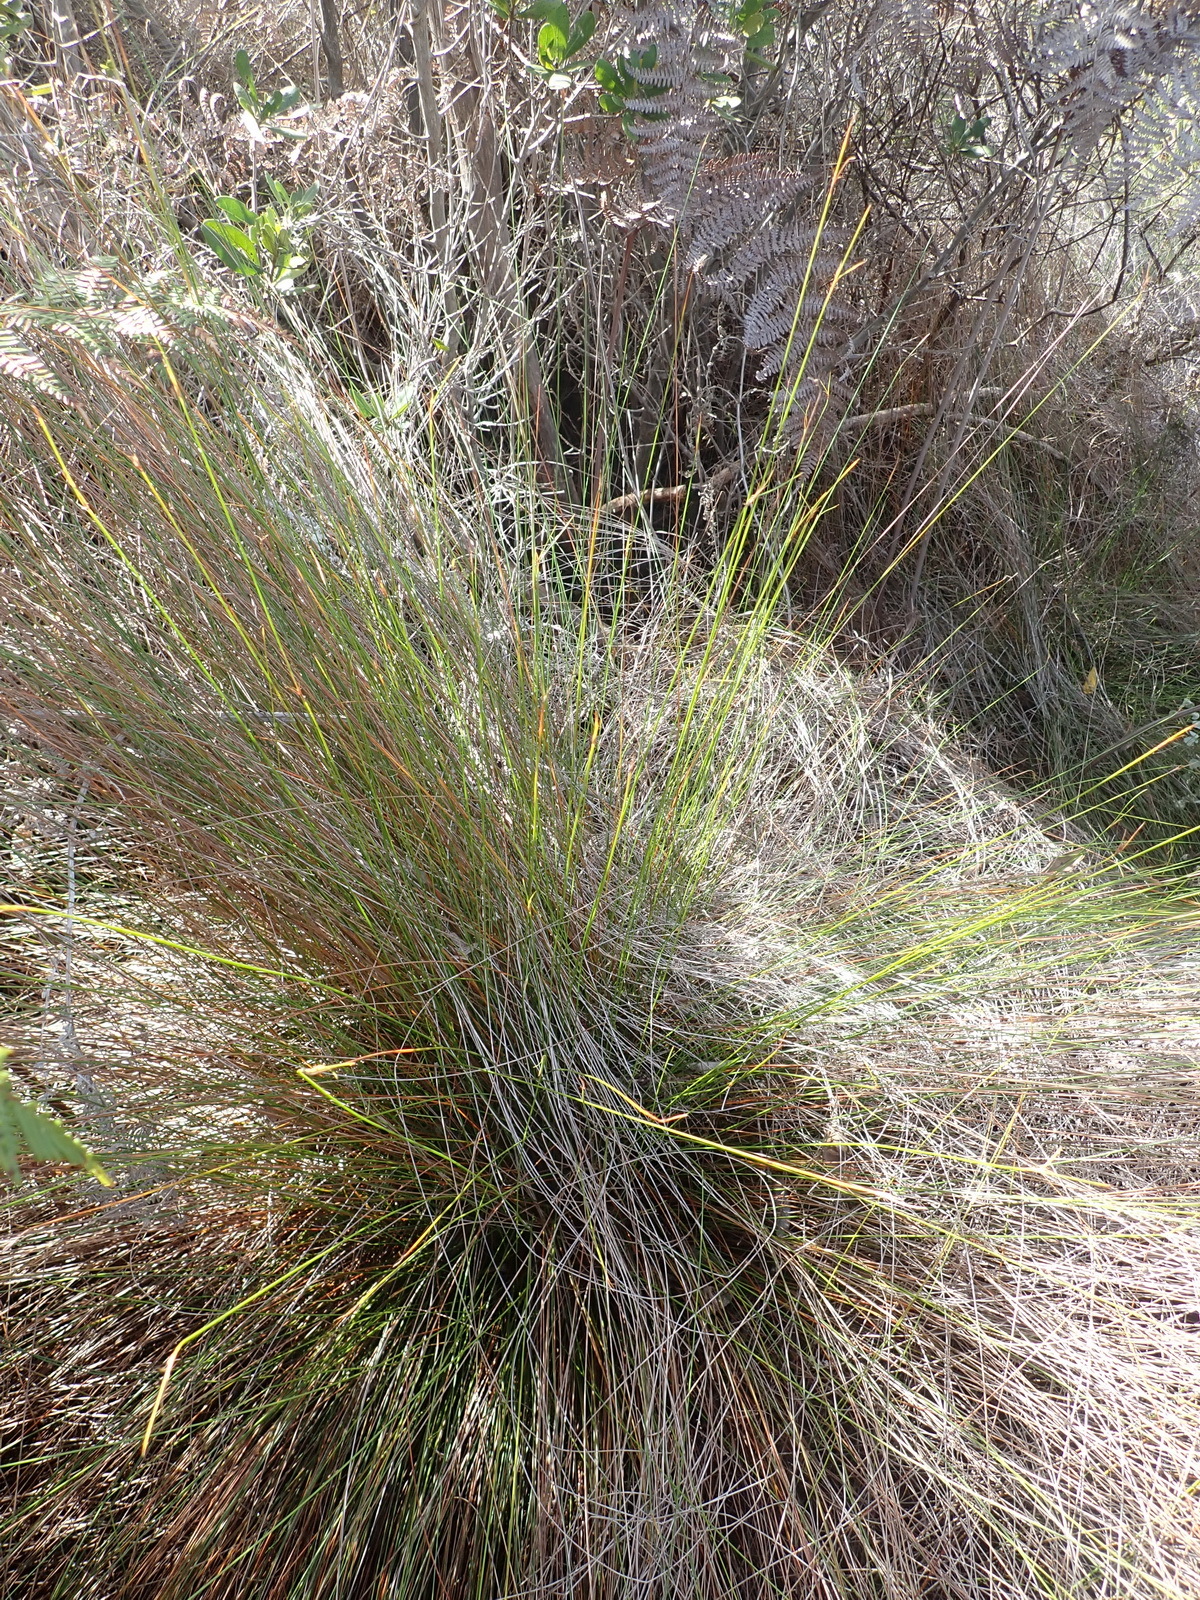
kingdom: Plantae
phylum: Tracheophyta
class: Liliopsida
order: Poales
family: Cyperaceae
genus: Schoenus
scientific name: Schoenus gracillimus
